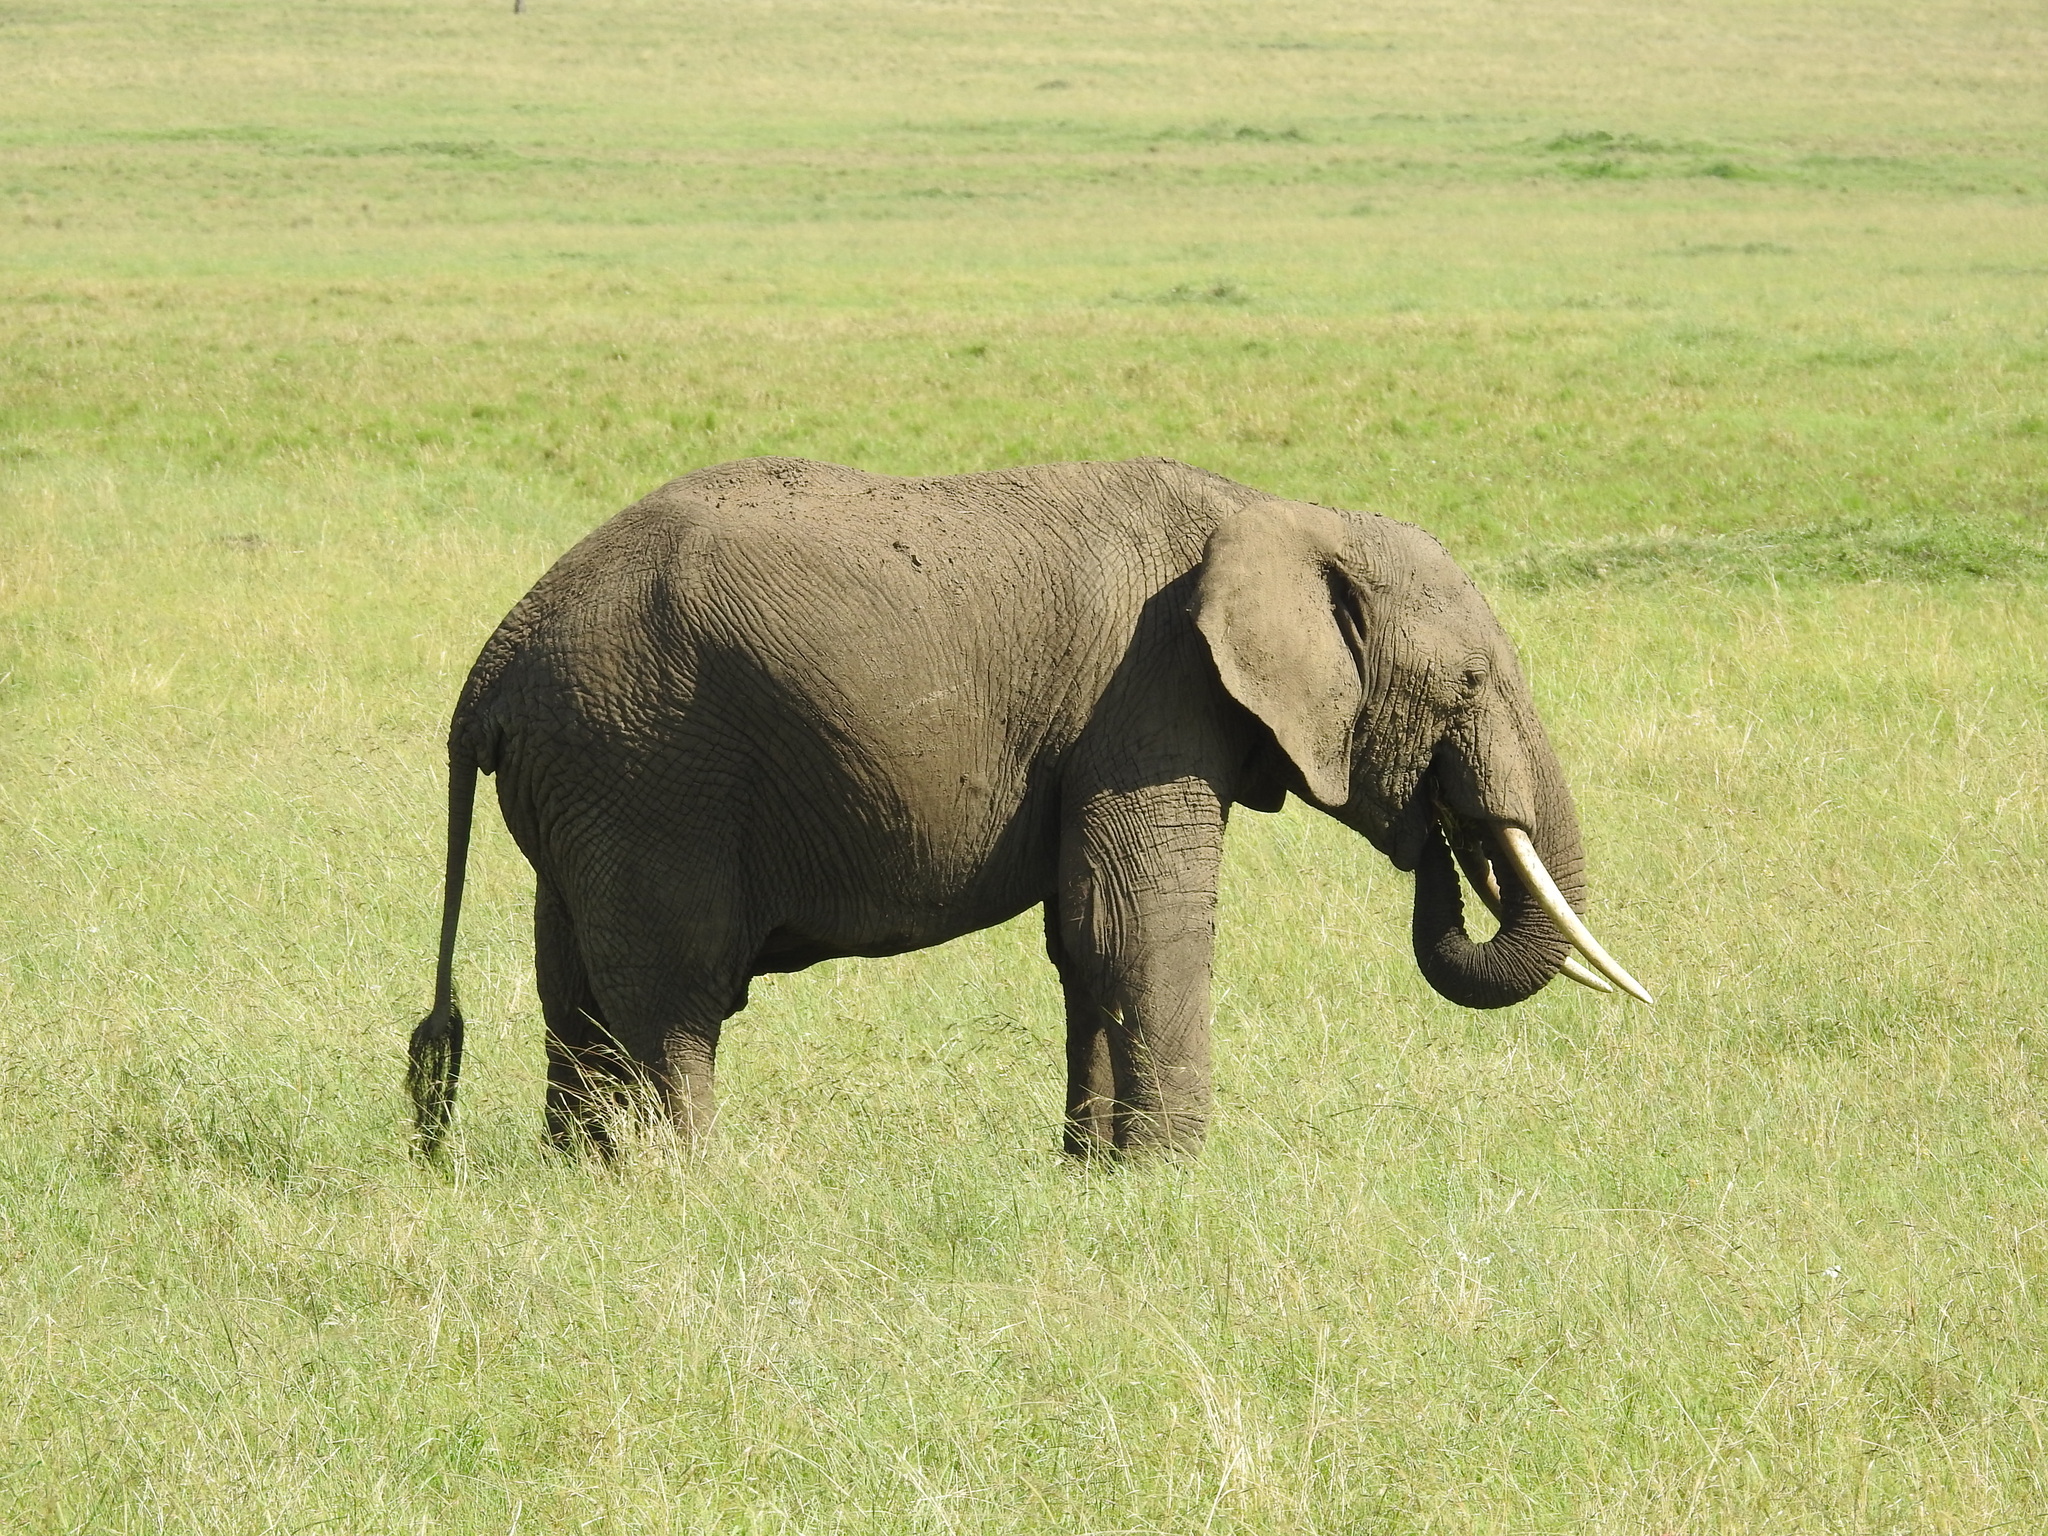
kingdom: Animalia
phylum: Chordata
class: Mammalia
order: Proboscidea
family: Elephantidae
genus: Loxodonta
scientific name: Loxodonta africana
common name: African elephant
